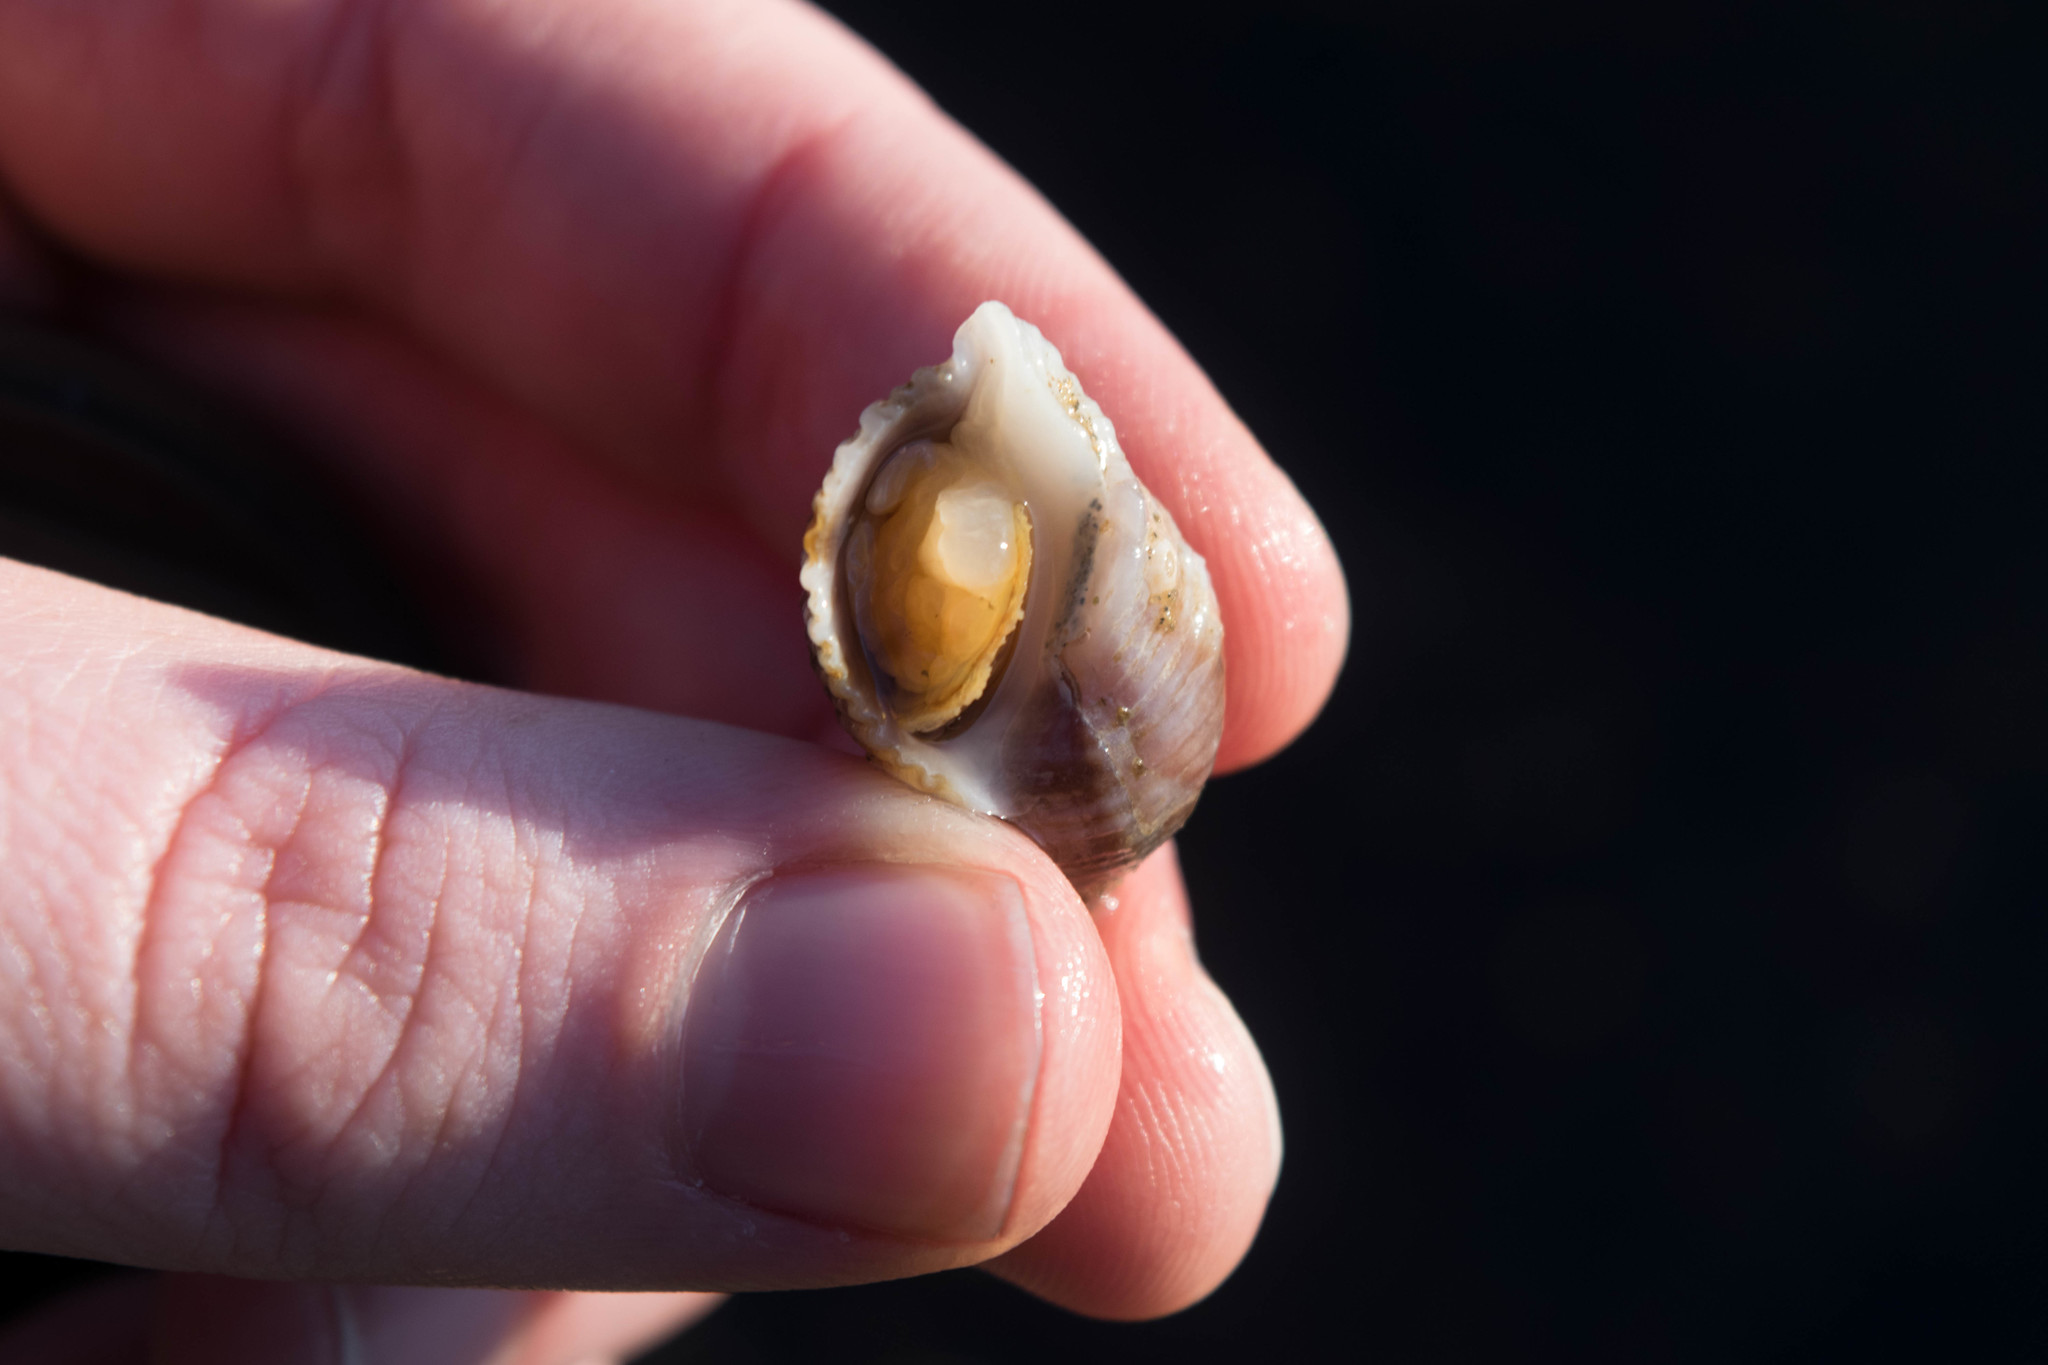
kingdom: Animalia
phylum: Mollusca
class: Gastropoda
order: Neogastropoda
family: Muricidae
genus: Nucella
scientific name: Nucella canaliculata
